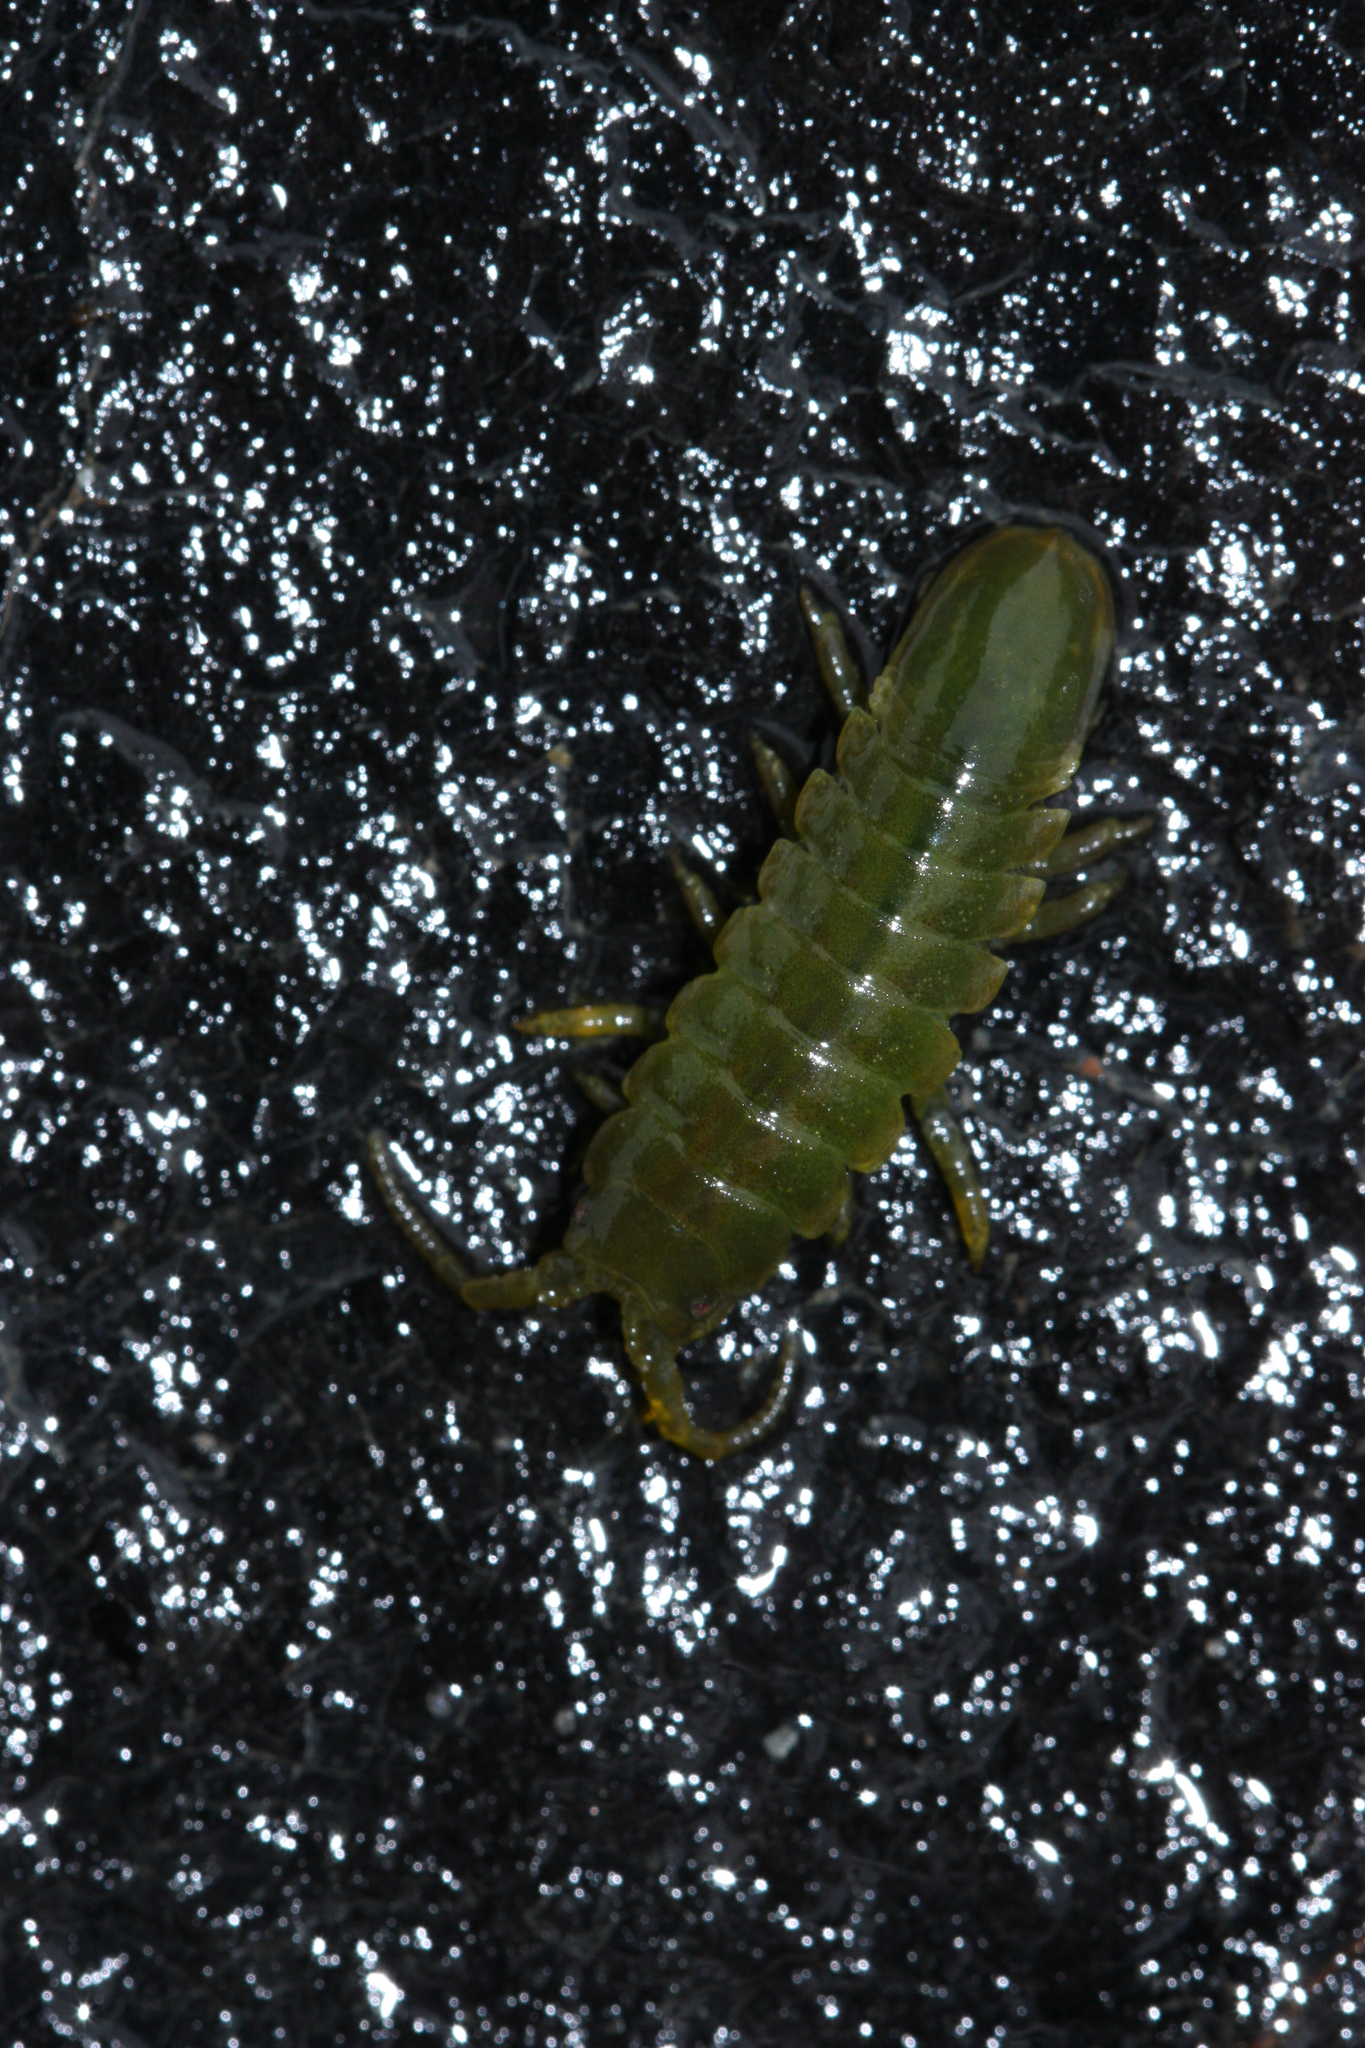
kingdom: Animalia
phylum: Arthropoda
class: Malacostraca
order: Isopoda
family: Idoteidae
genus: Pentidotea
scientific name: Pentidotea wosnesenskii
